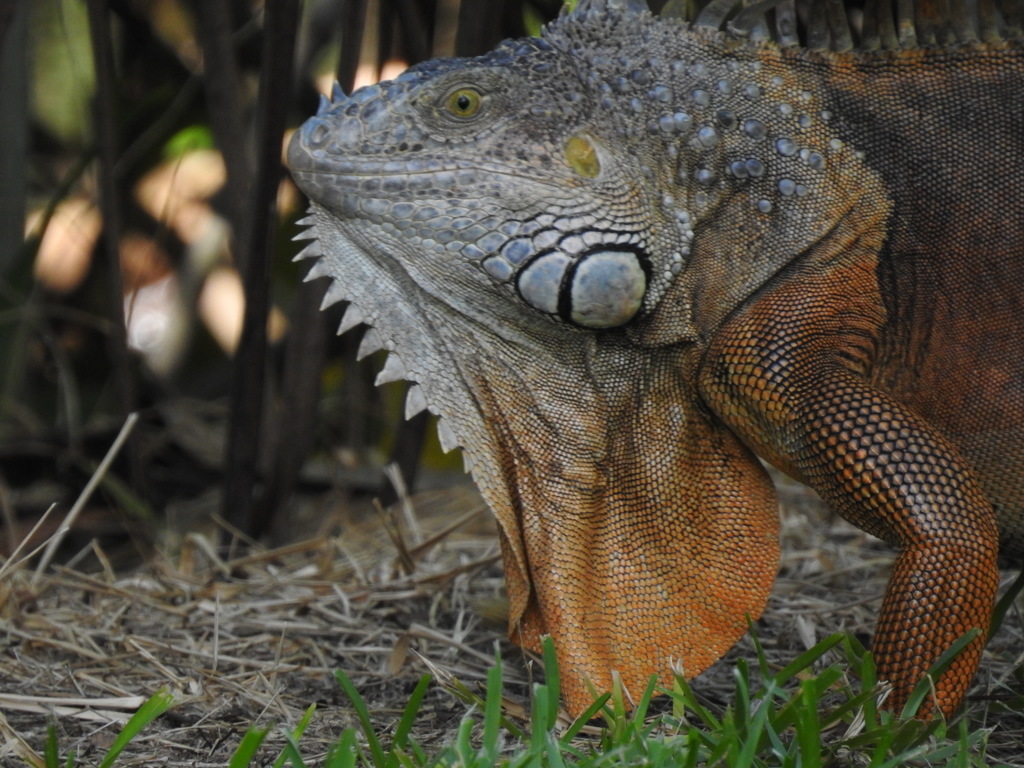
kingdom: Animalia
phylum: Chordata
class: Squamata
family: Iguanidae
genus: Iguana
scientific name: Iguana iguana
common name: Green iguana
